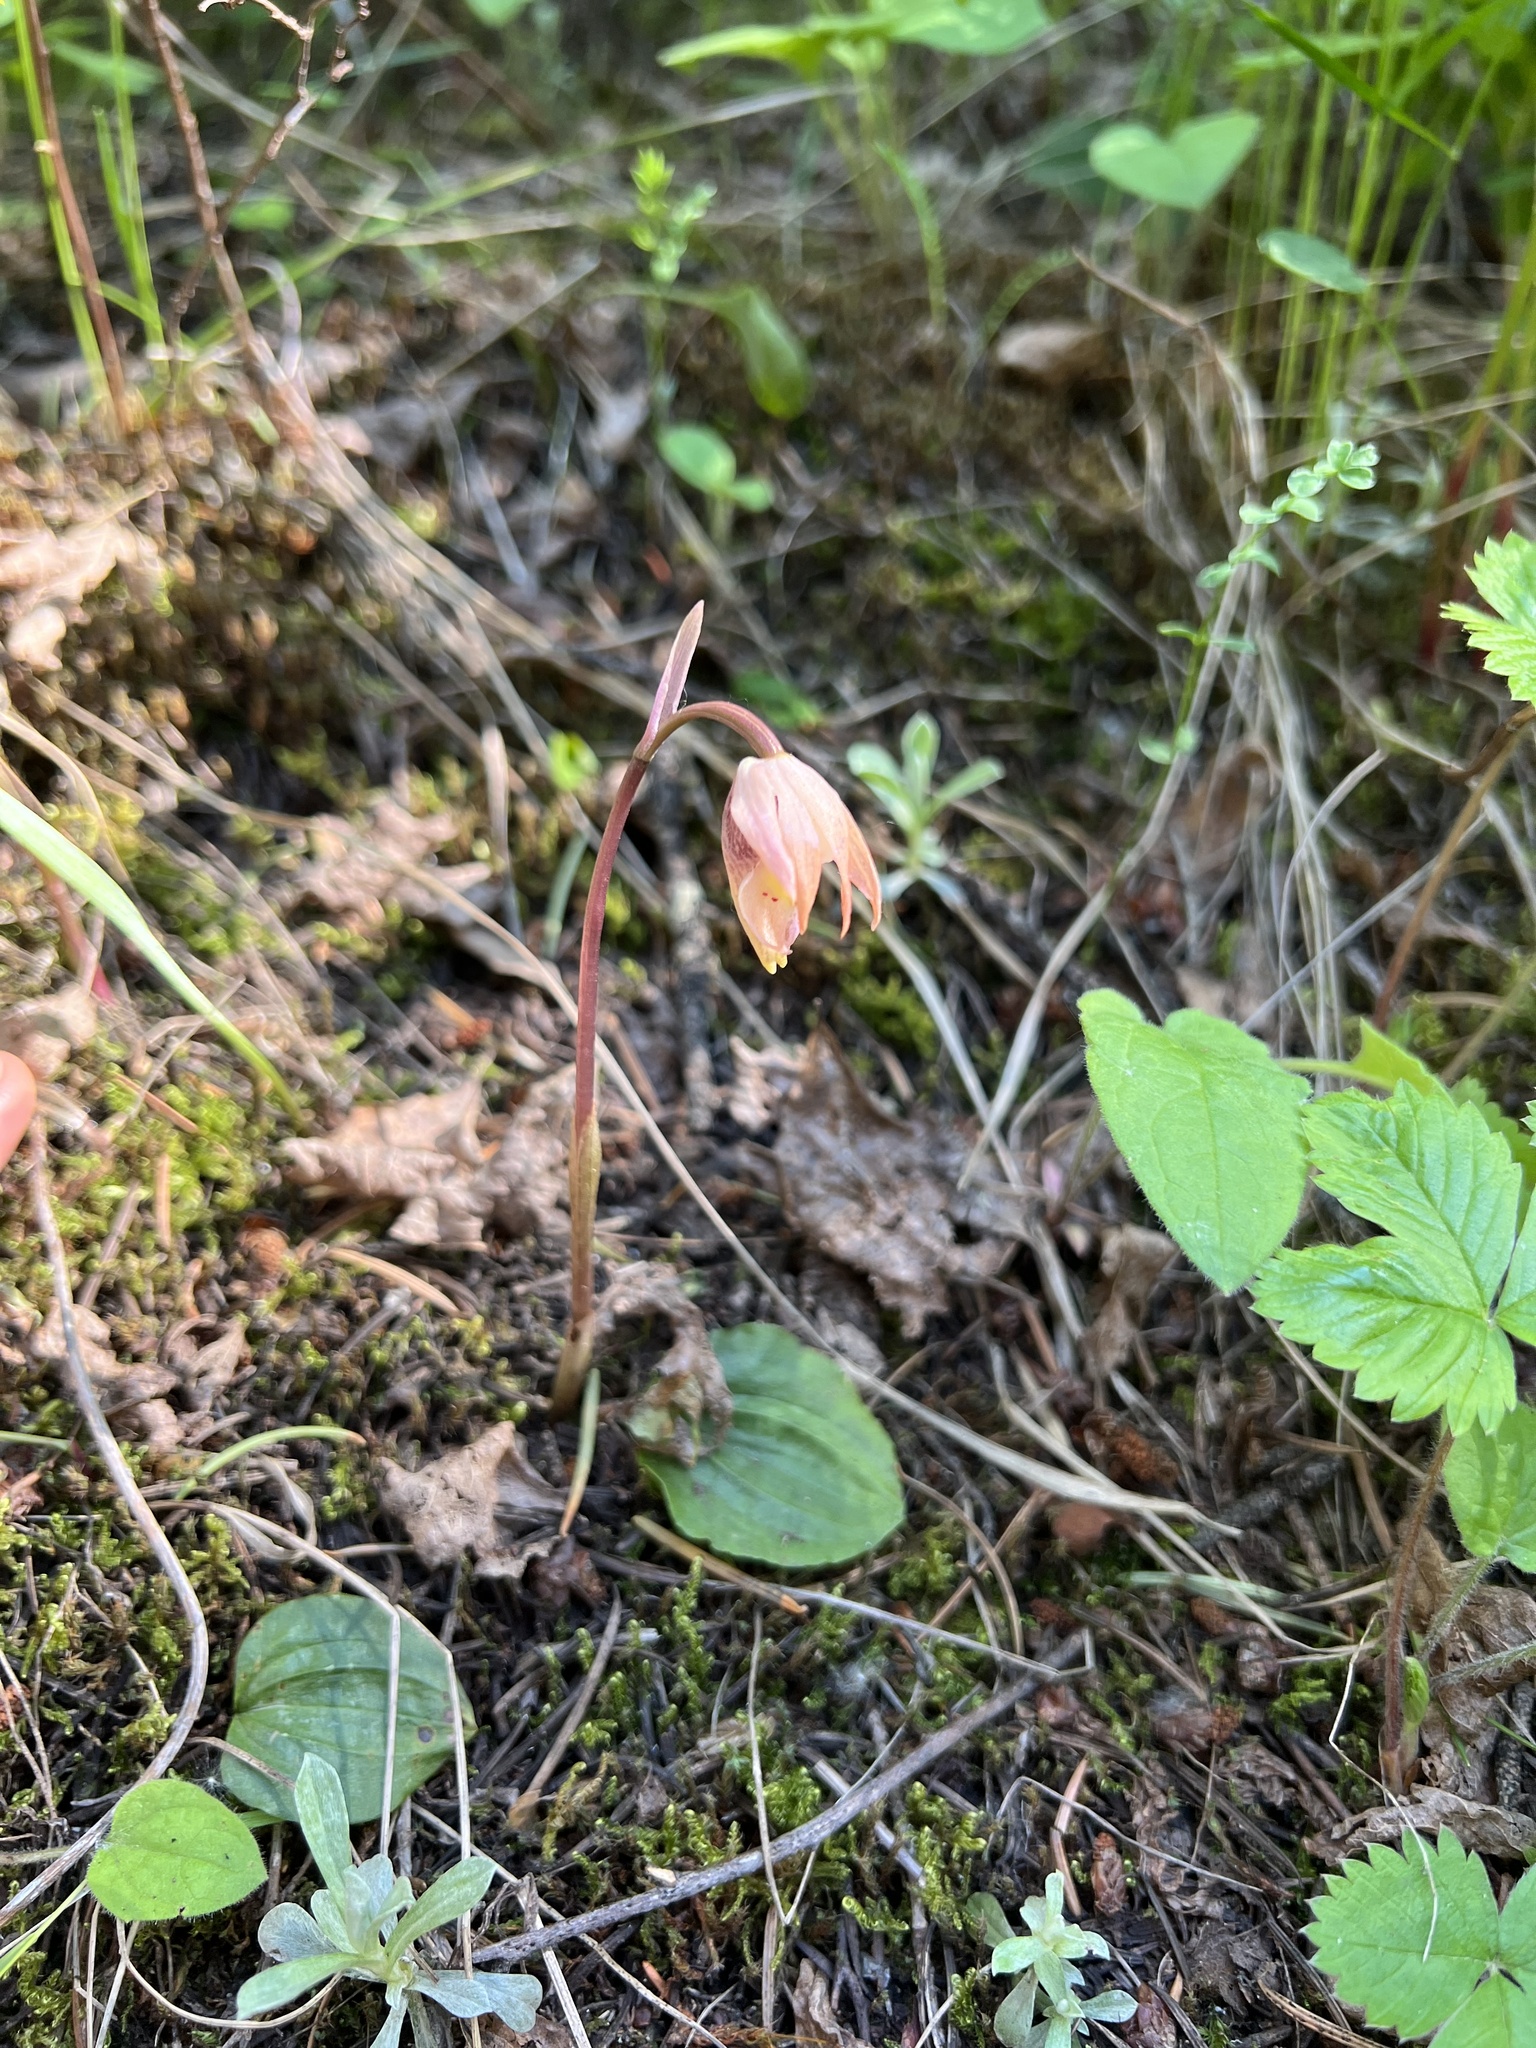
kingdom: Plantae
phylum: Tracheophyta
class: Liliopsida
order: Asparagales
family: Orchidaceae
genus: Calypso
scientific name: Calypso bulbosa
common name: Calypso
